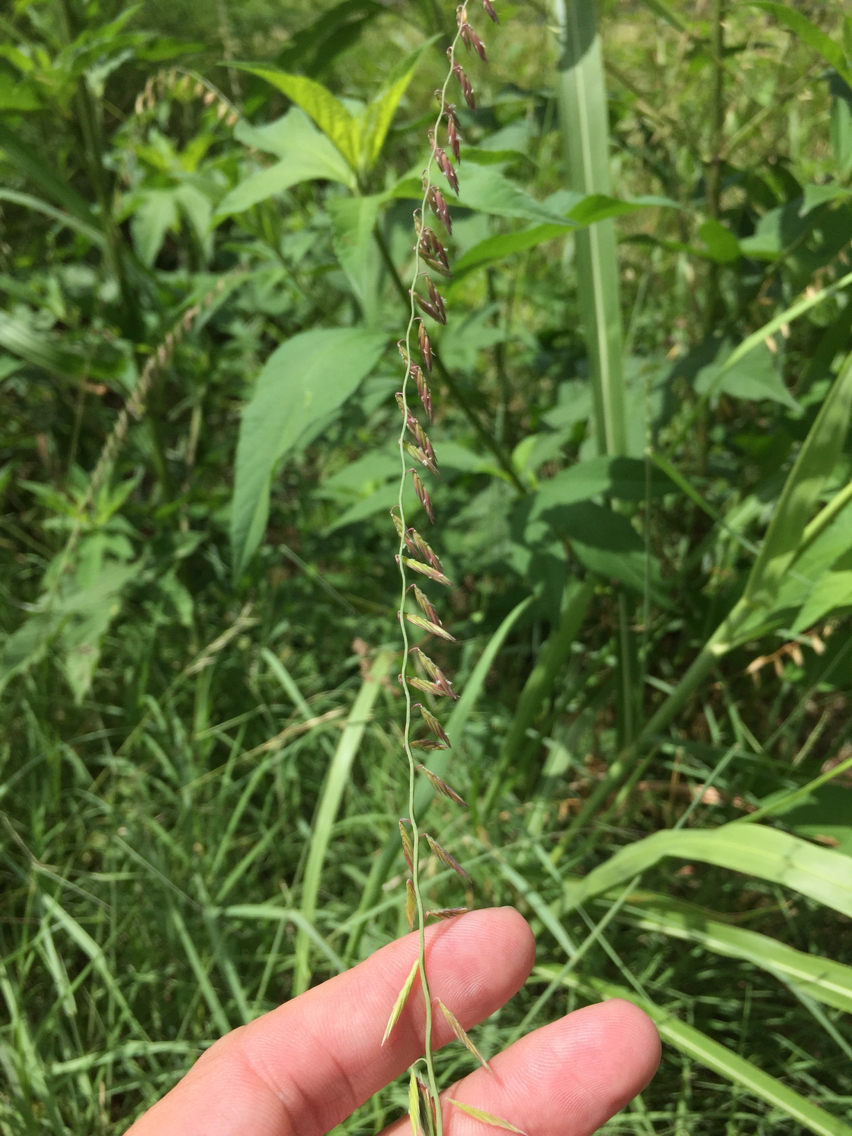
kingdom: Plantae
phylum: Tracheophyta
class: Liliopsida
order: Poales
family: Poaceae
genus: Bouteloua
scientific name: Bouteloua curtipendula
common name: Side-oats grama
